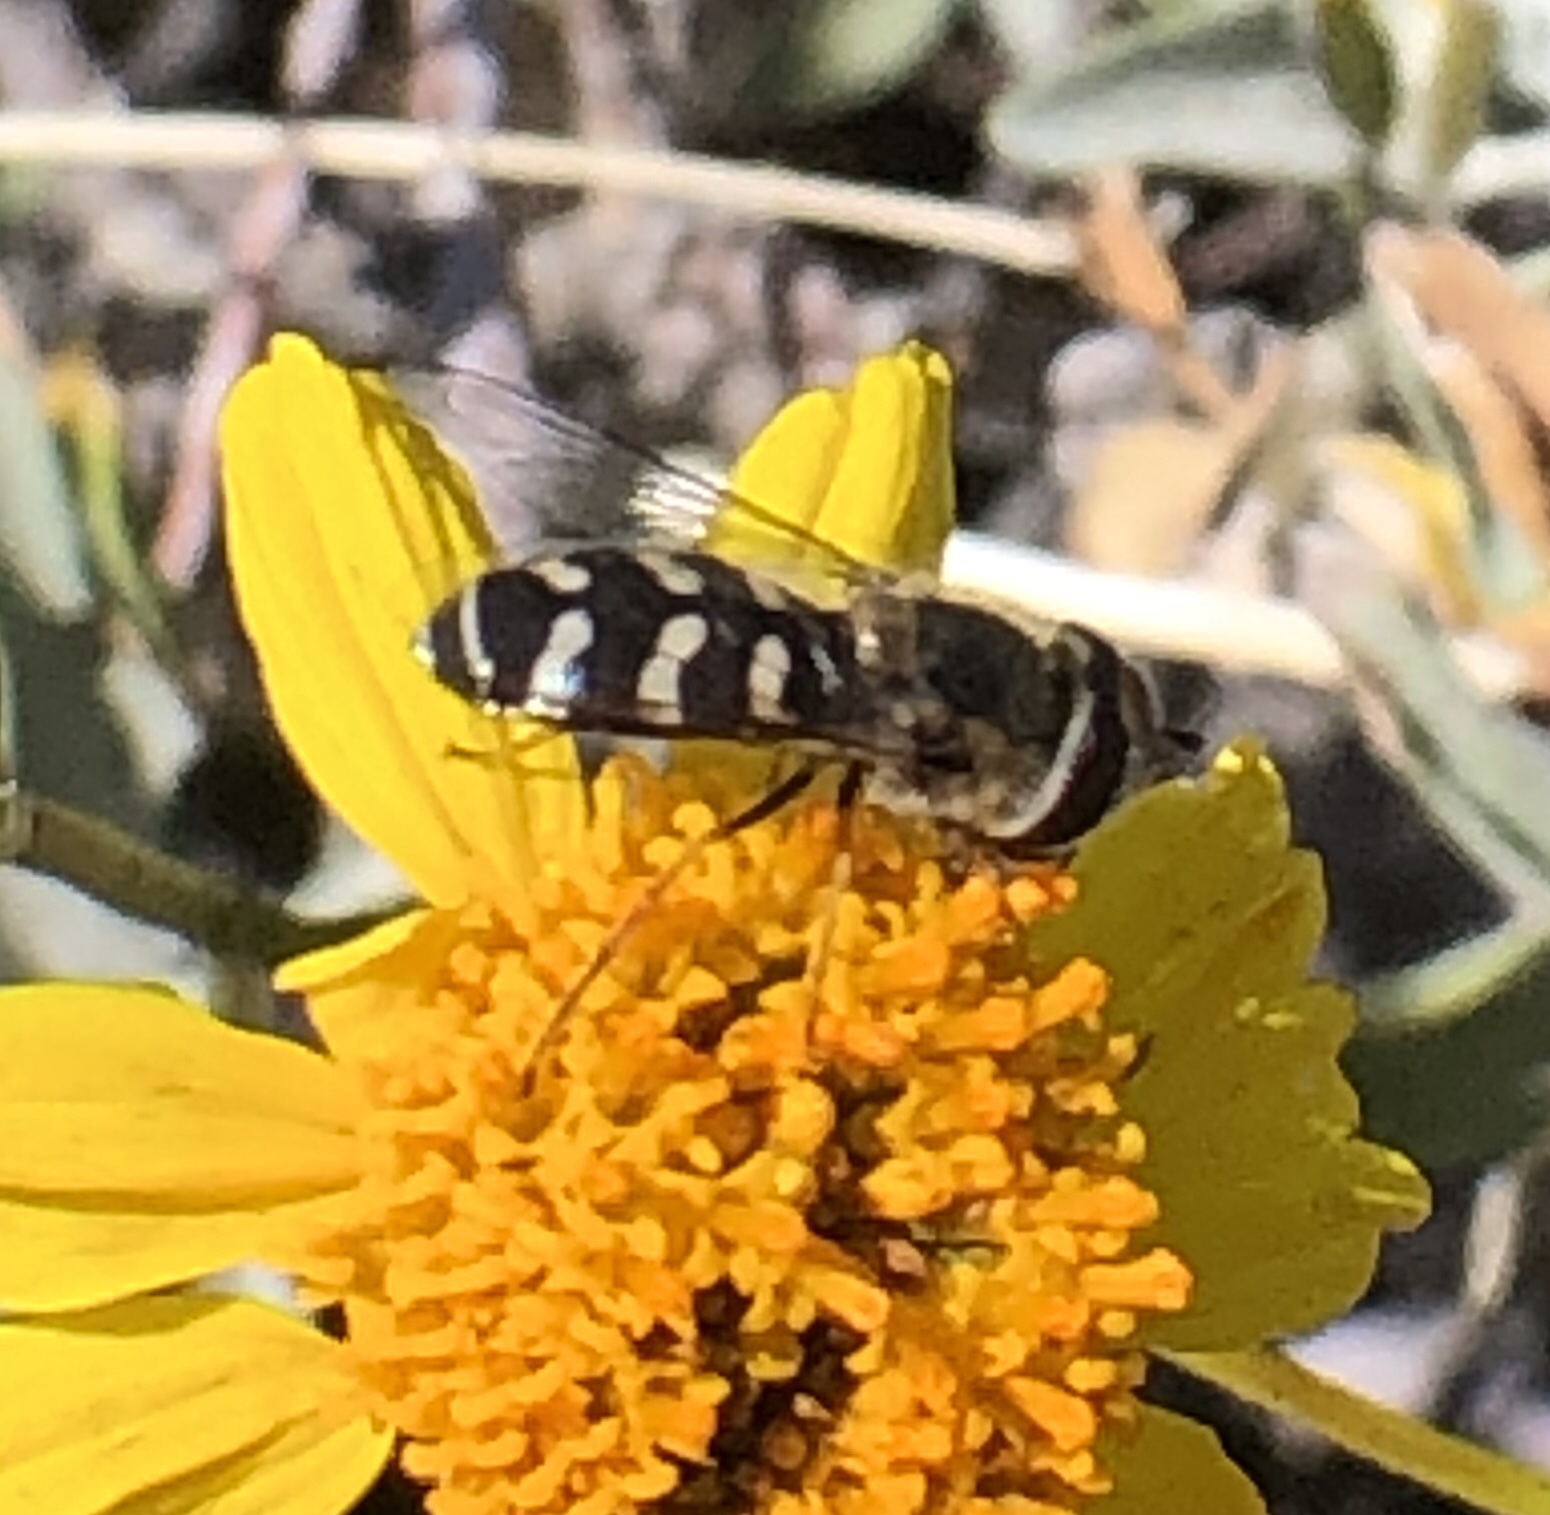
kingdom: Animalia
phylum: Arthropoda
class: Insecta
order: Diptera
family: Syrphidae
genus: Scaeva
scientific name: Scaeva affinis
